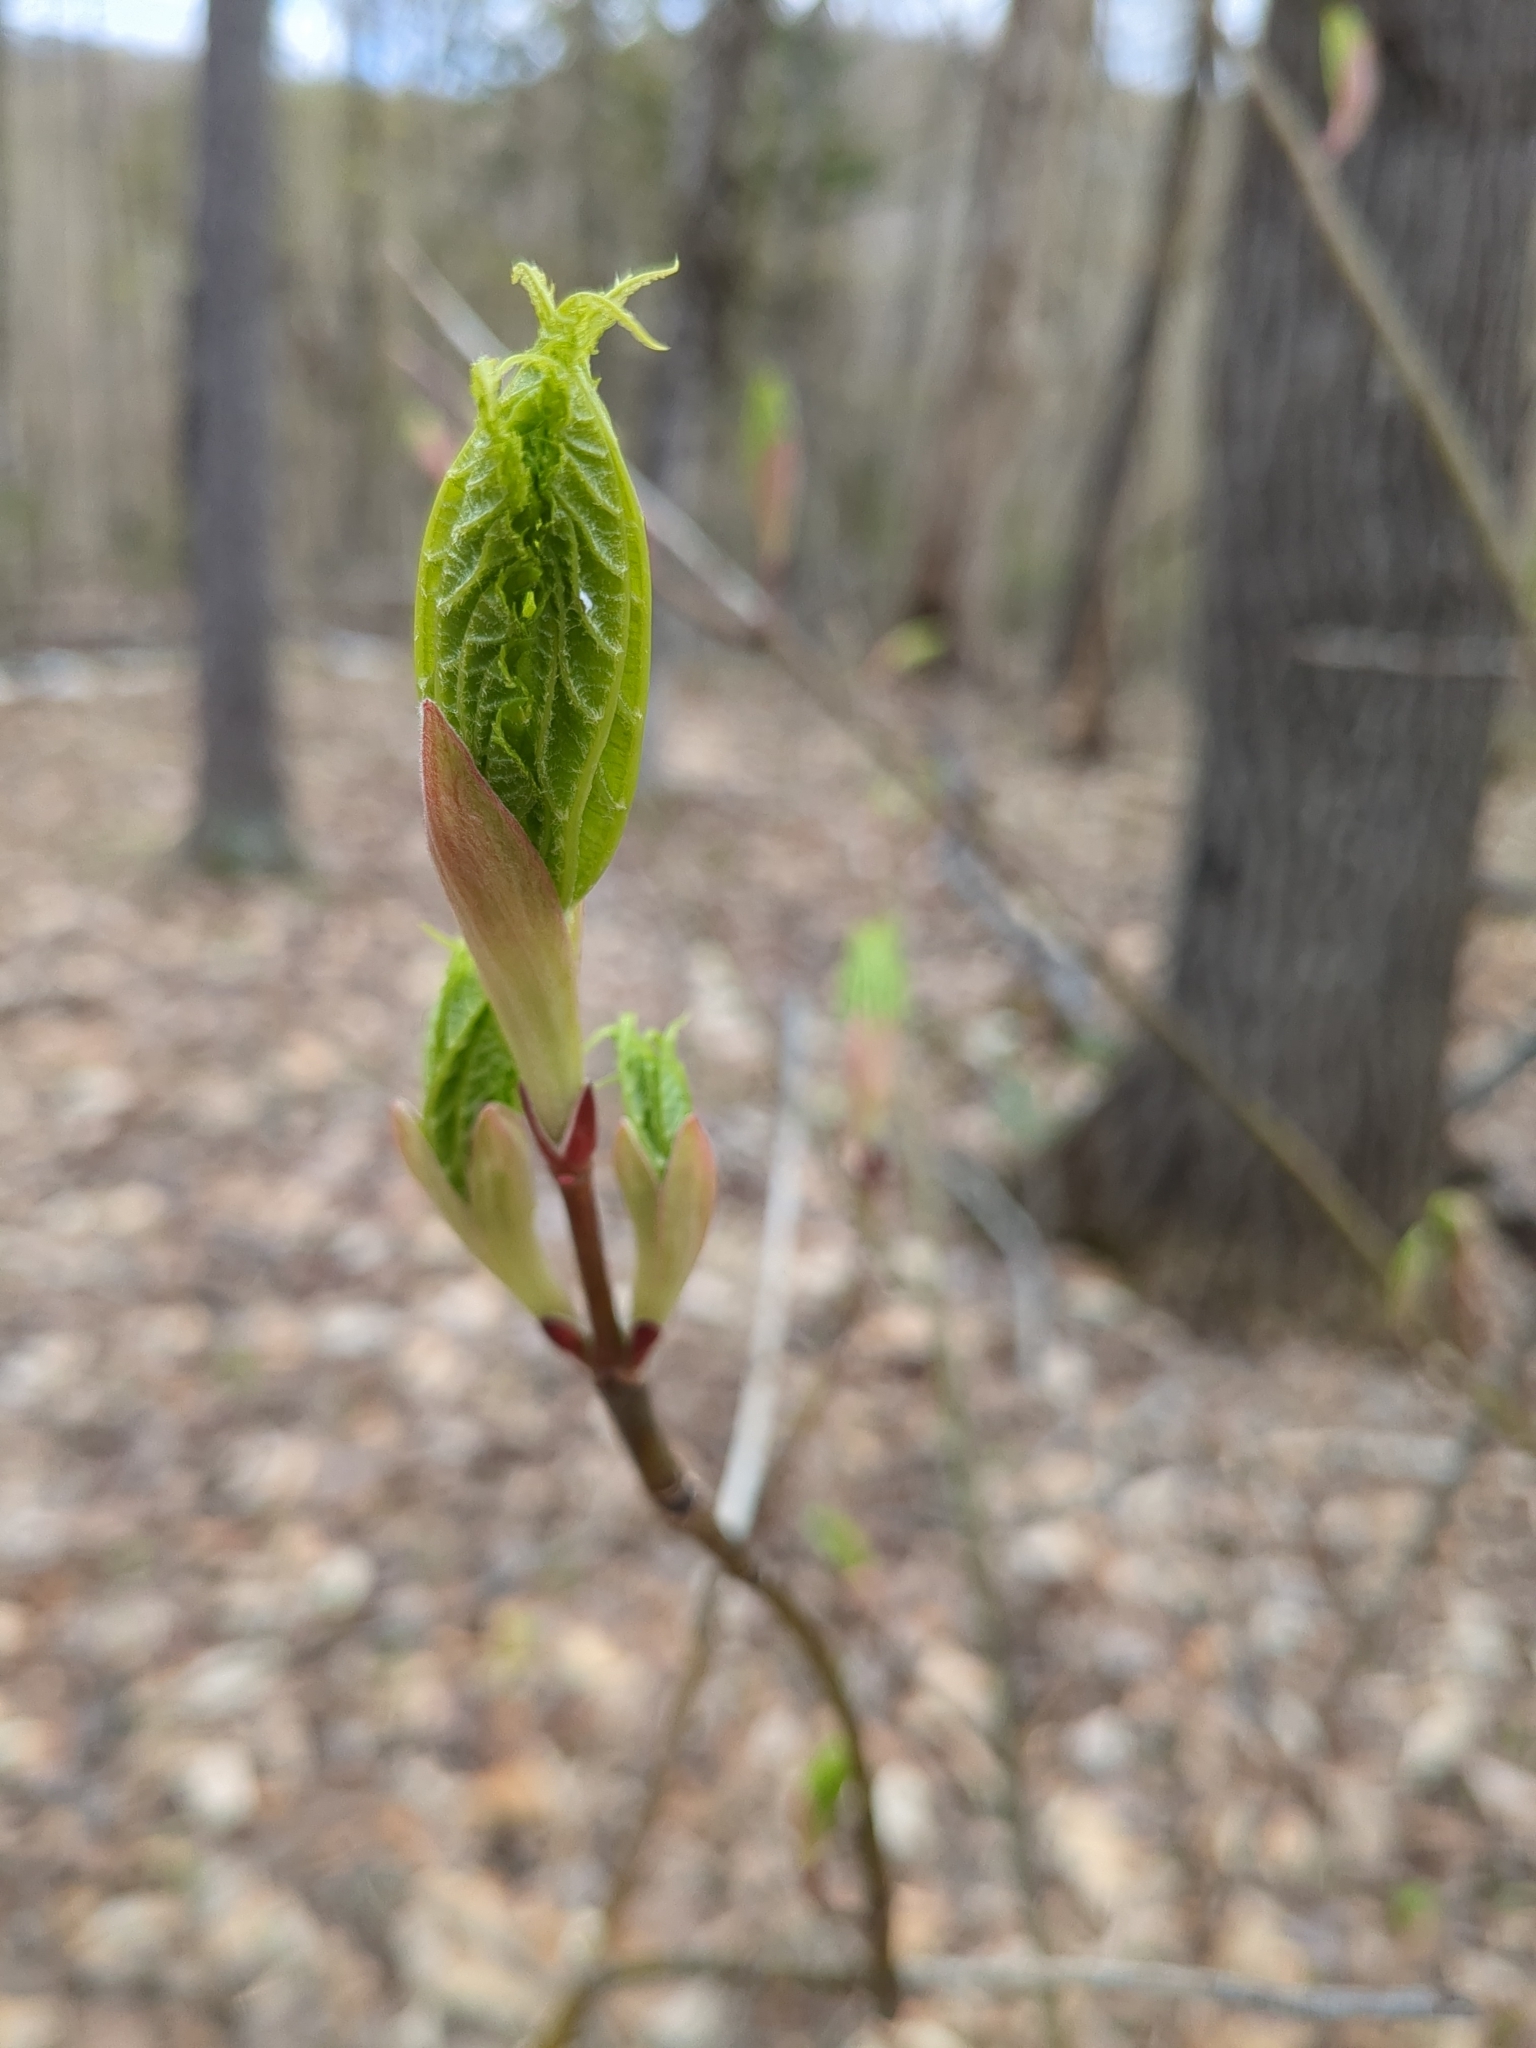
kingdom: Plantae
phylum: Tracheophyta
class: Magnoliopsida
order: Sapindales
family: Sapindaceae
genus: Acer
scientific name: Acer pensylvanicum
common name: Moosewood
